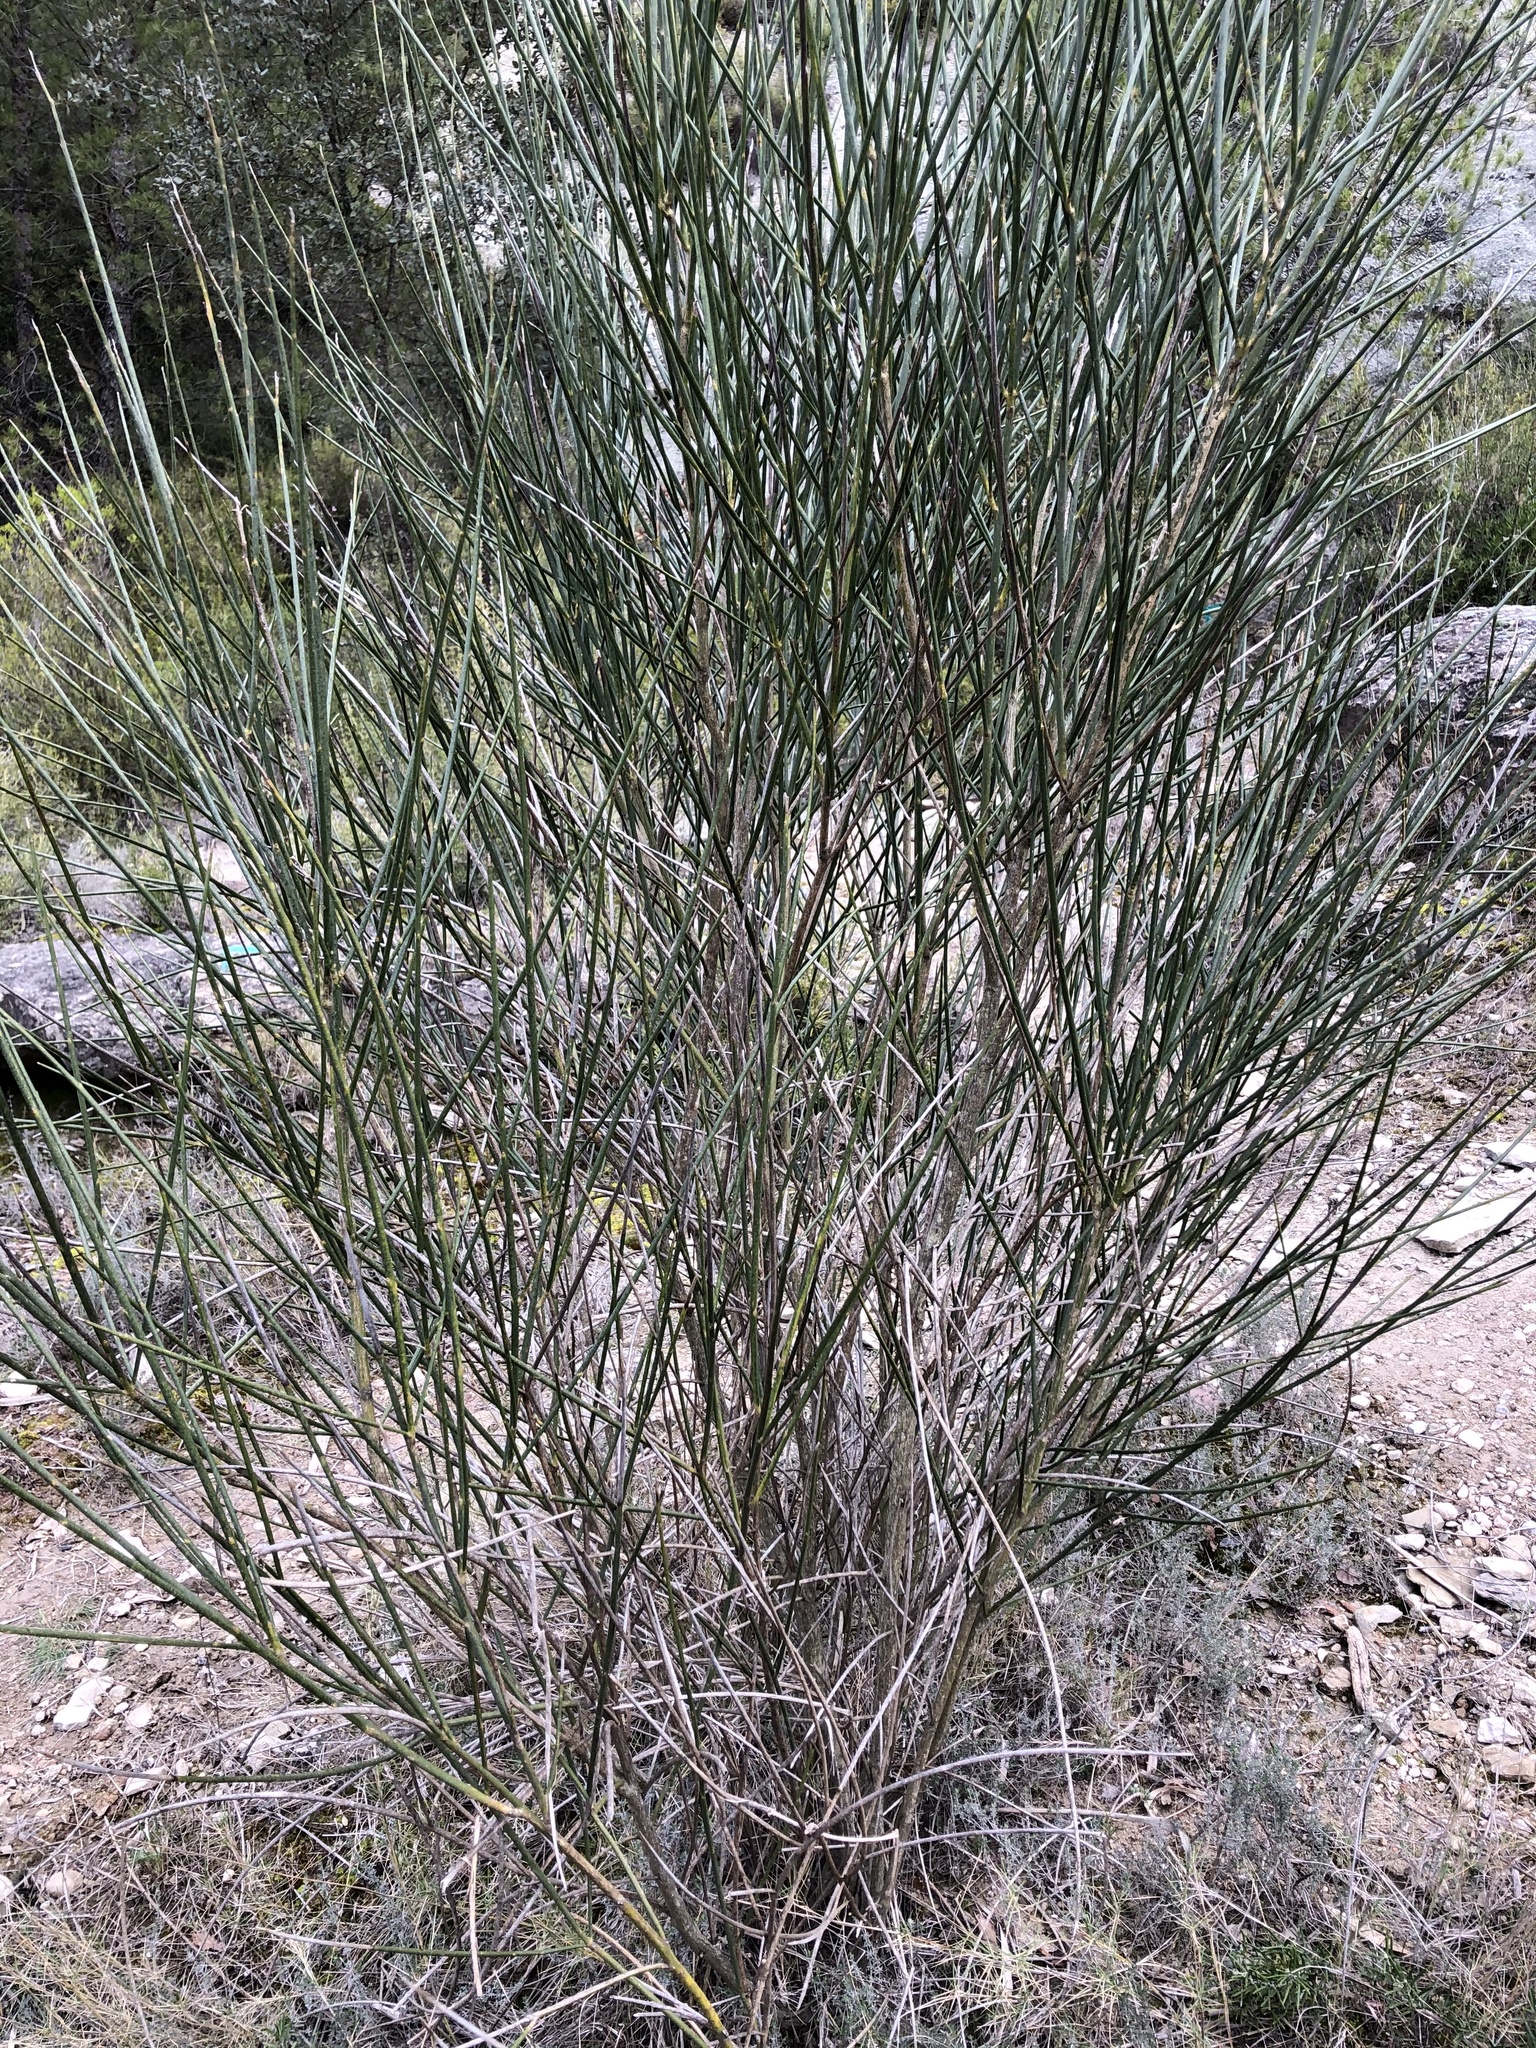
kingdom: Plantae
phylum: Tracheophyta
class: Magnoliopsida
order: Fabales
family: Fabaceae
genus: Spartium
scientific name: Spartium junceum
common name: Spanish broom
